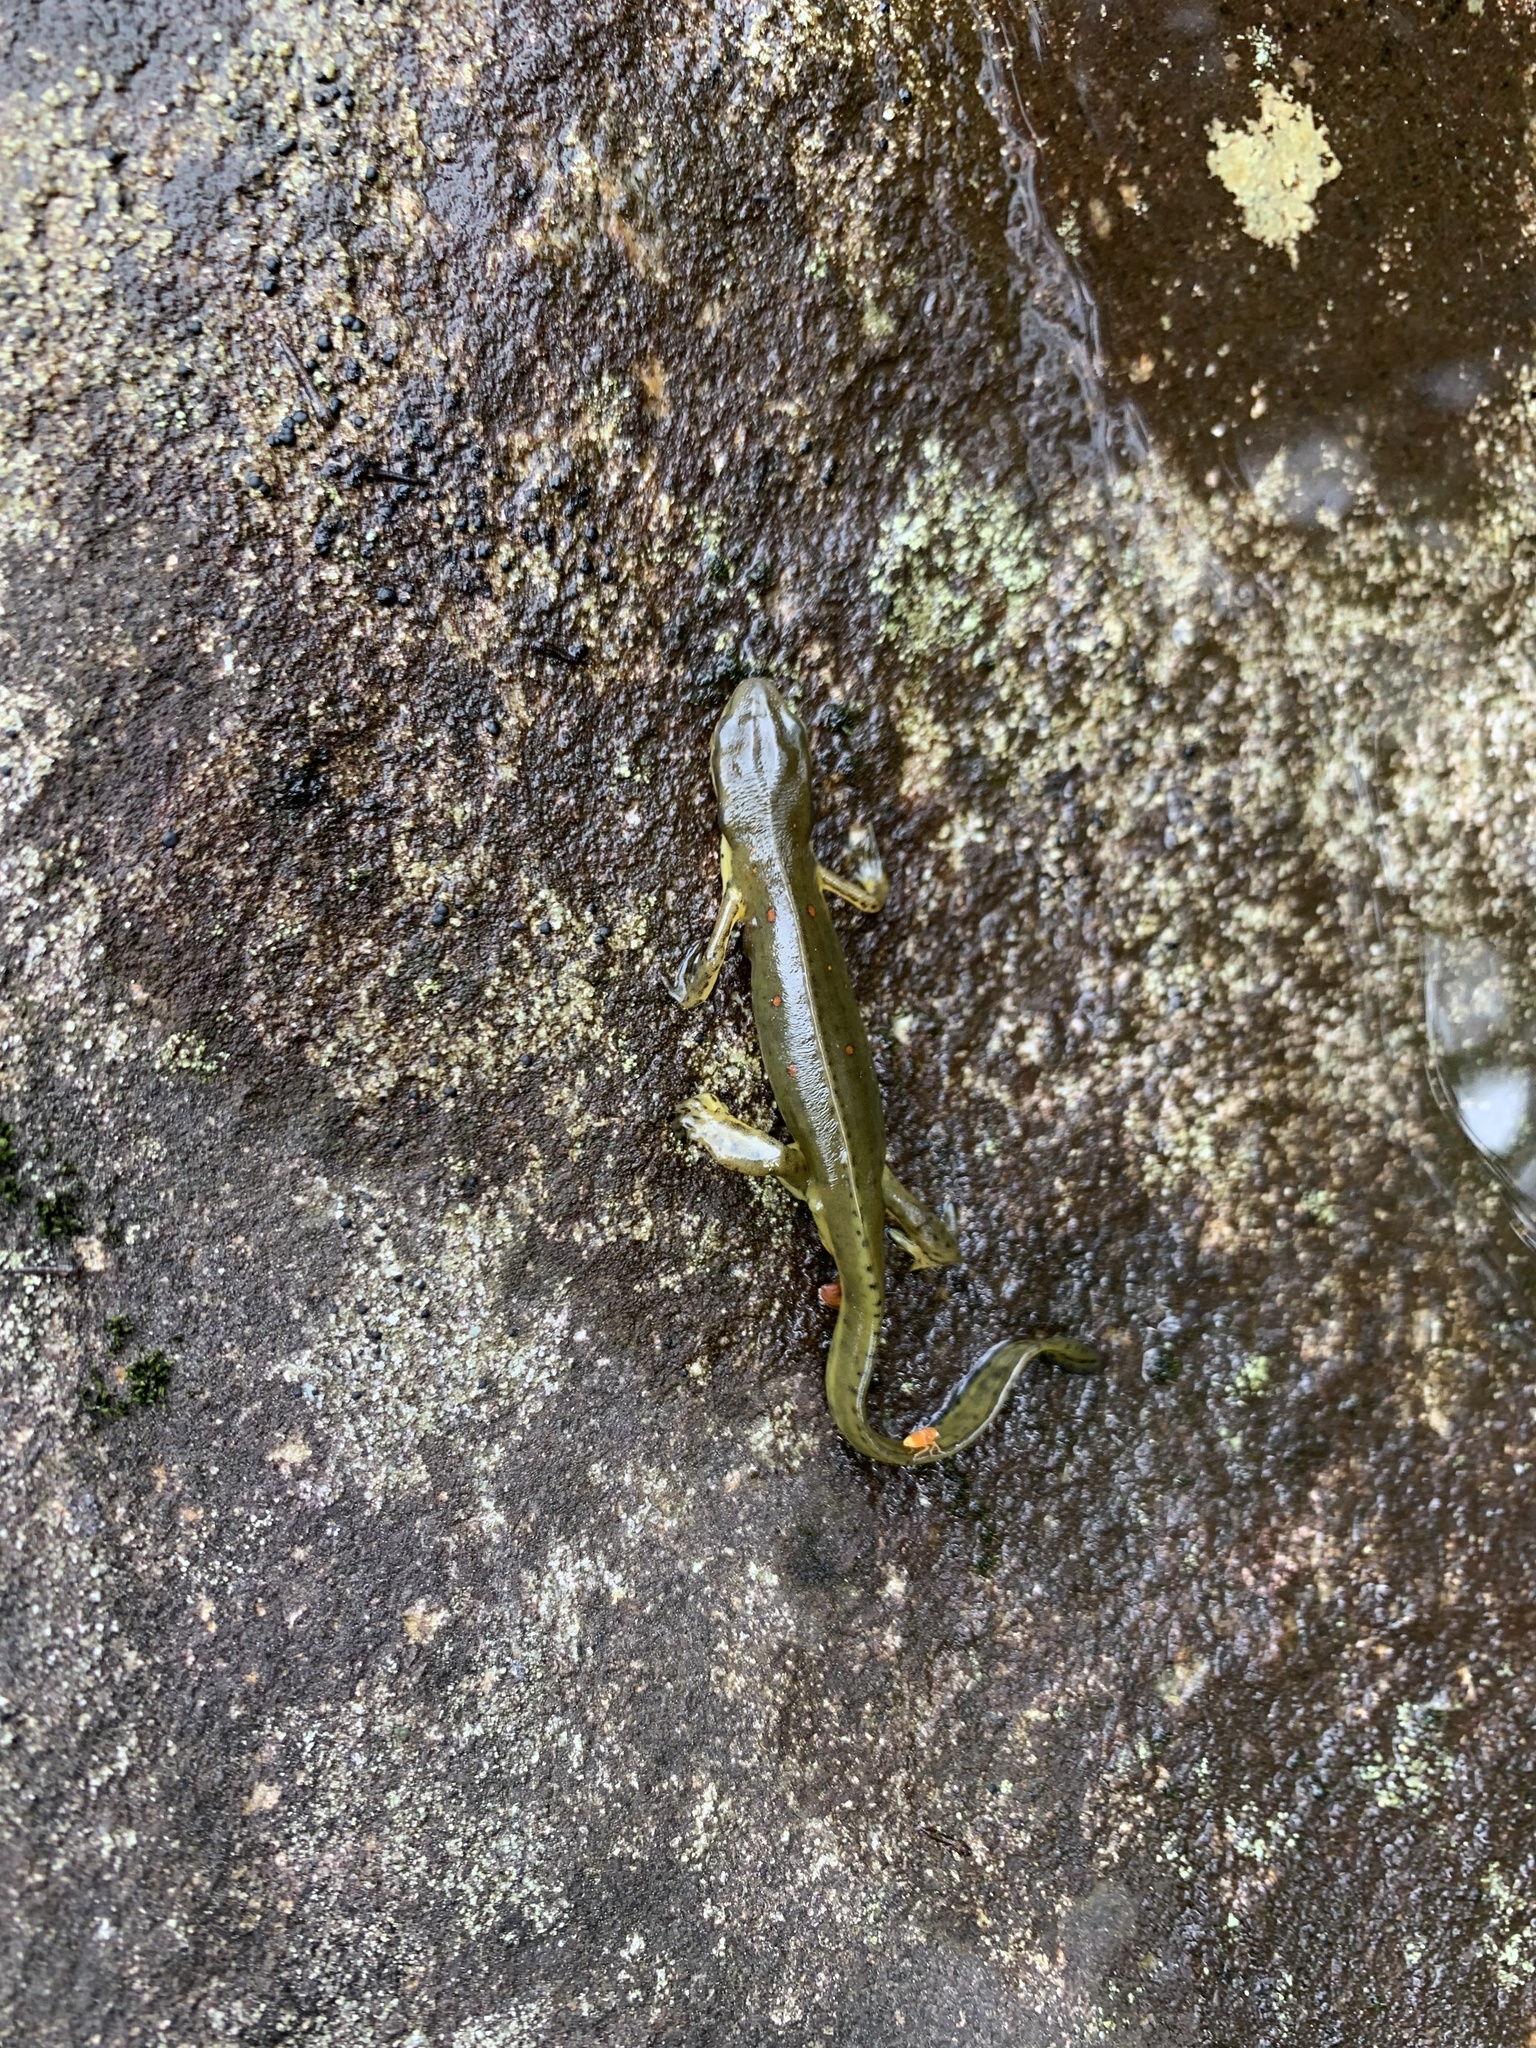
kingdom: Animalia
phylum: Chordata
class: Amphibia
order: Caudata
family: Salamandridae
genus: Notophthalmus
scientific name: Notophthalmus viridescens
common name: Eastern newt
